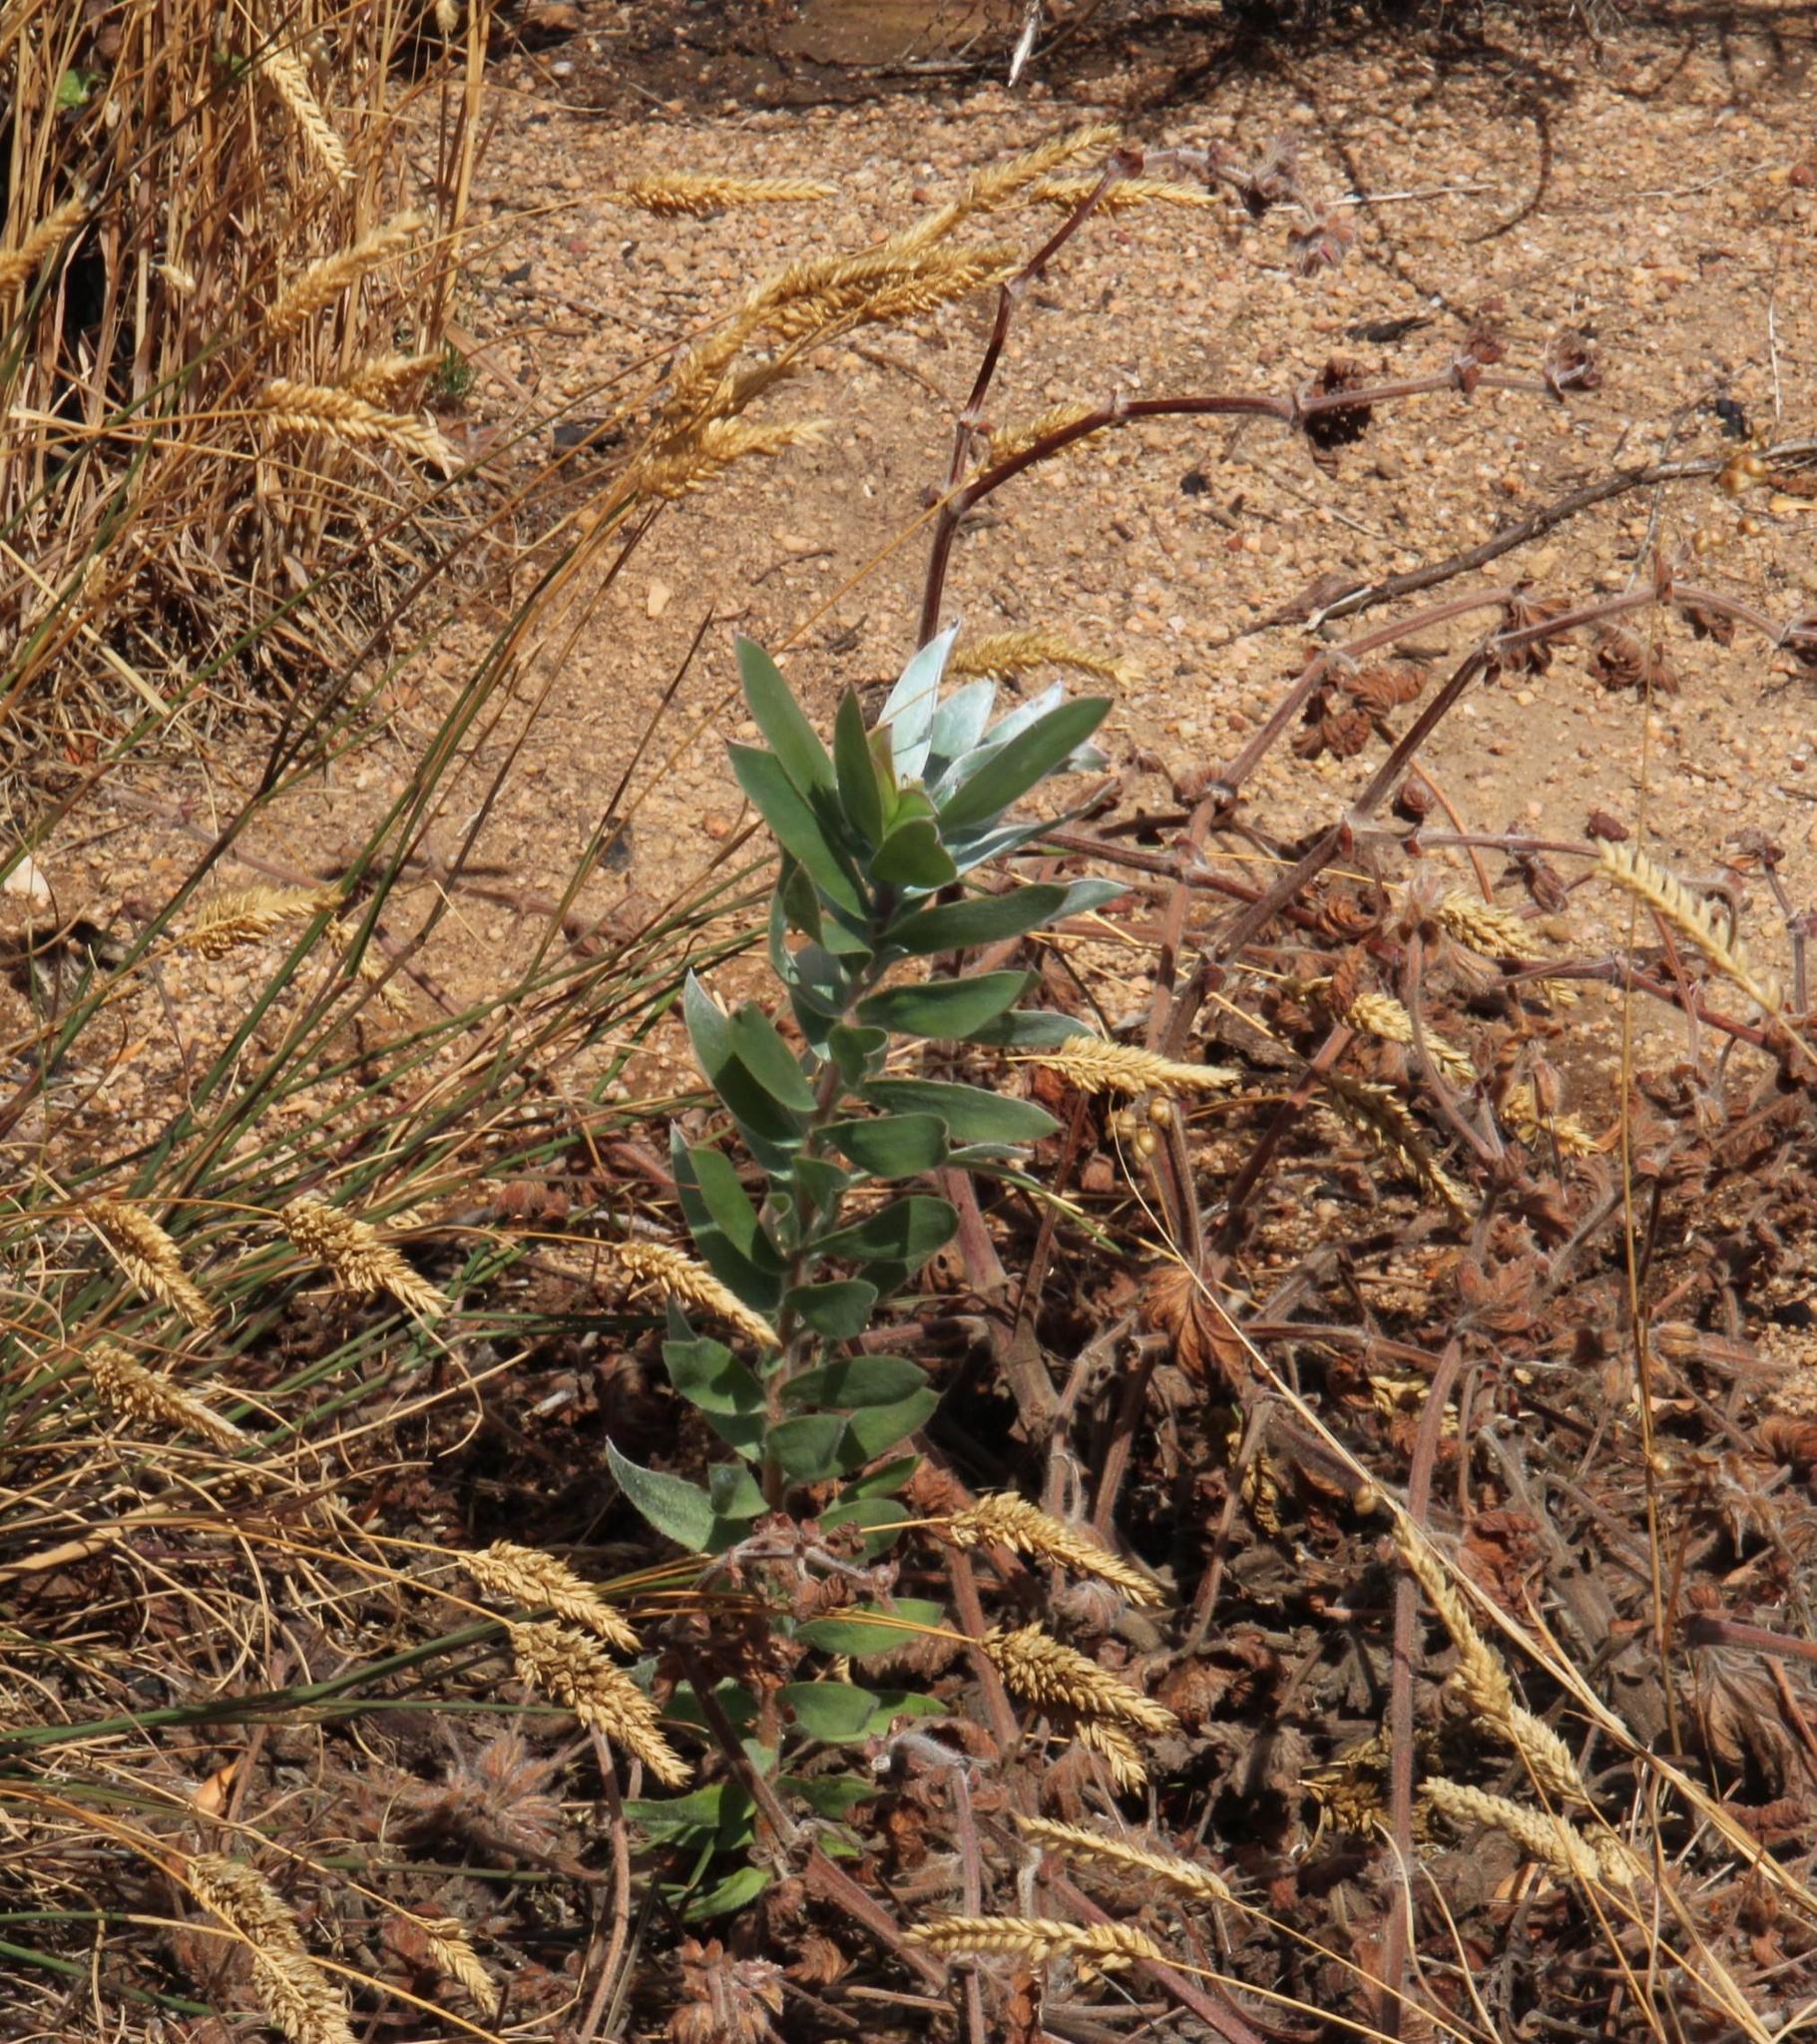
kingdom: Plantae
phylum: Tracheophyta
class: Magnoliopsida
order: Proteales
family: Proteaceae
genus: Leucadendron
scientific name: Leucadendron argenteum
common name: Cape silver tree
